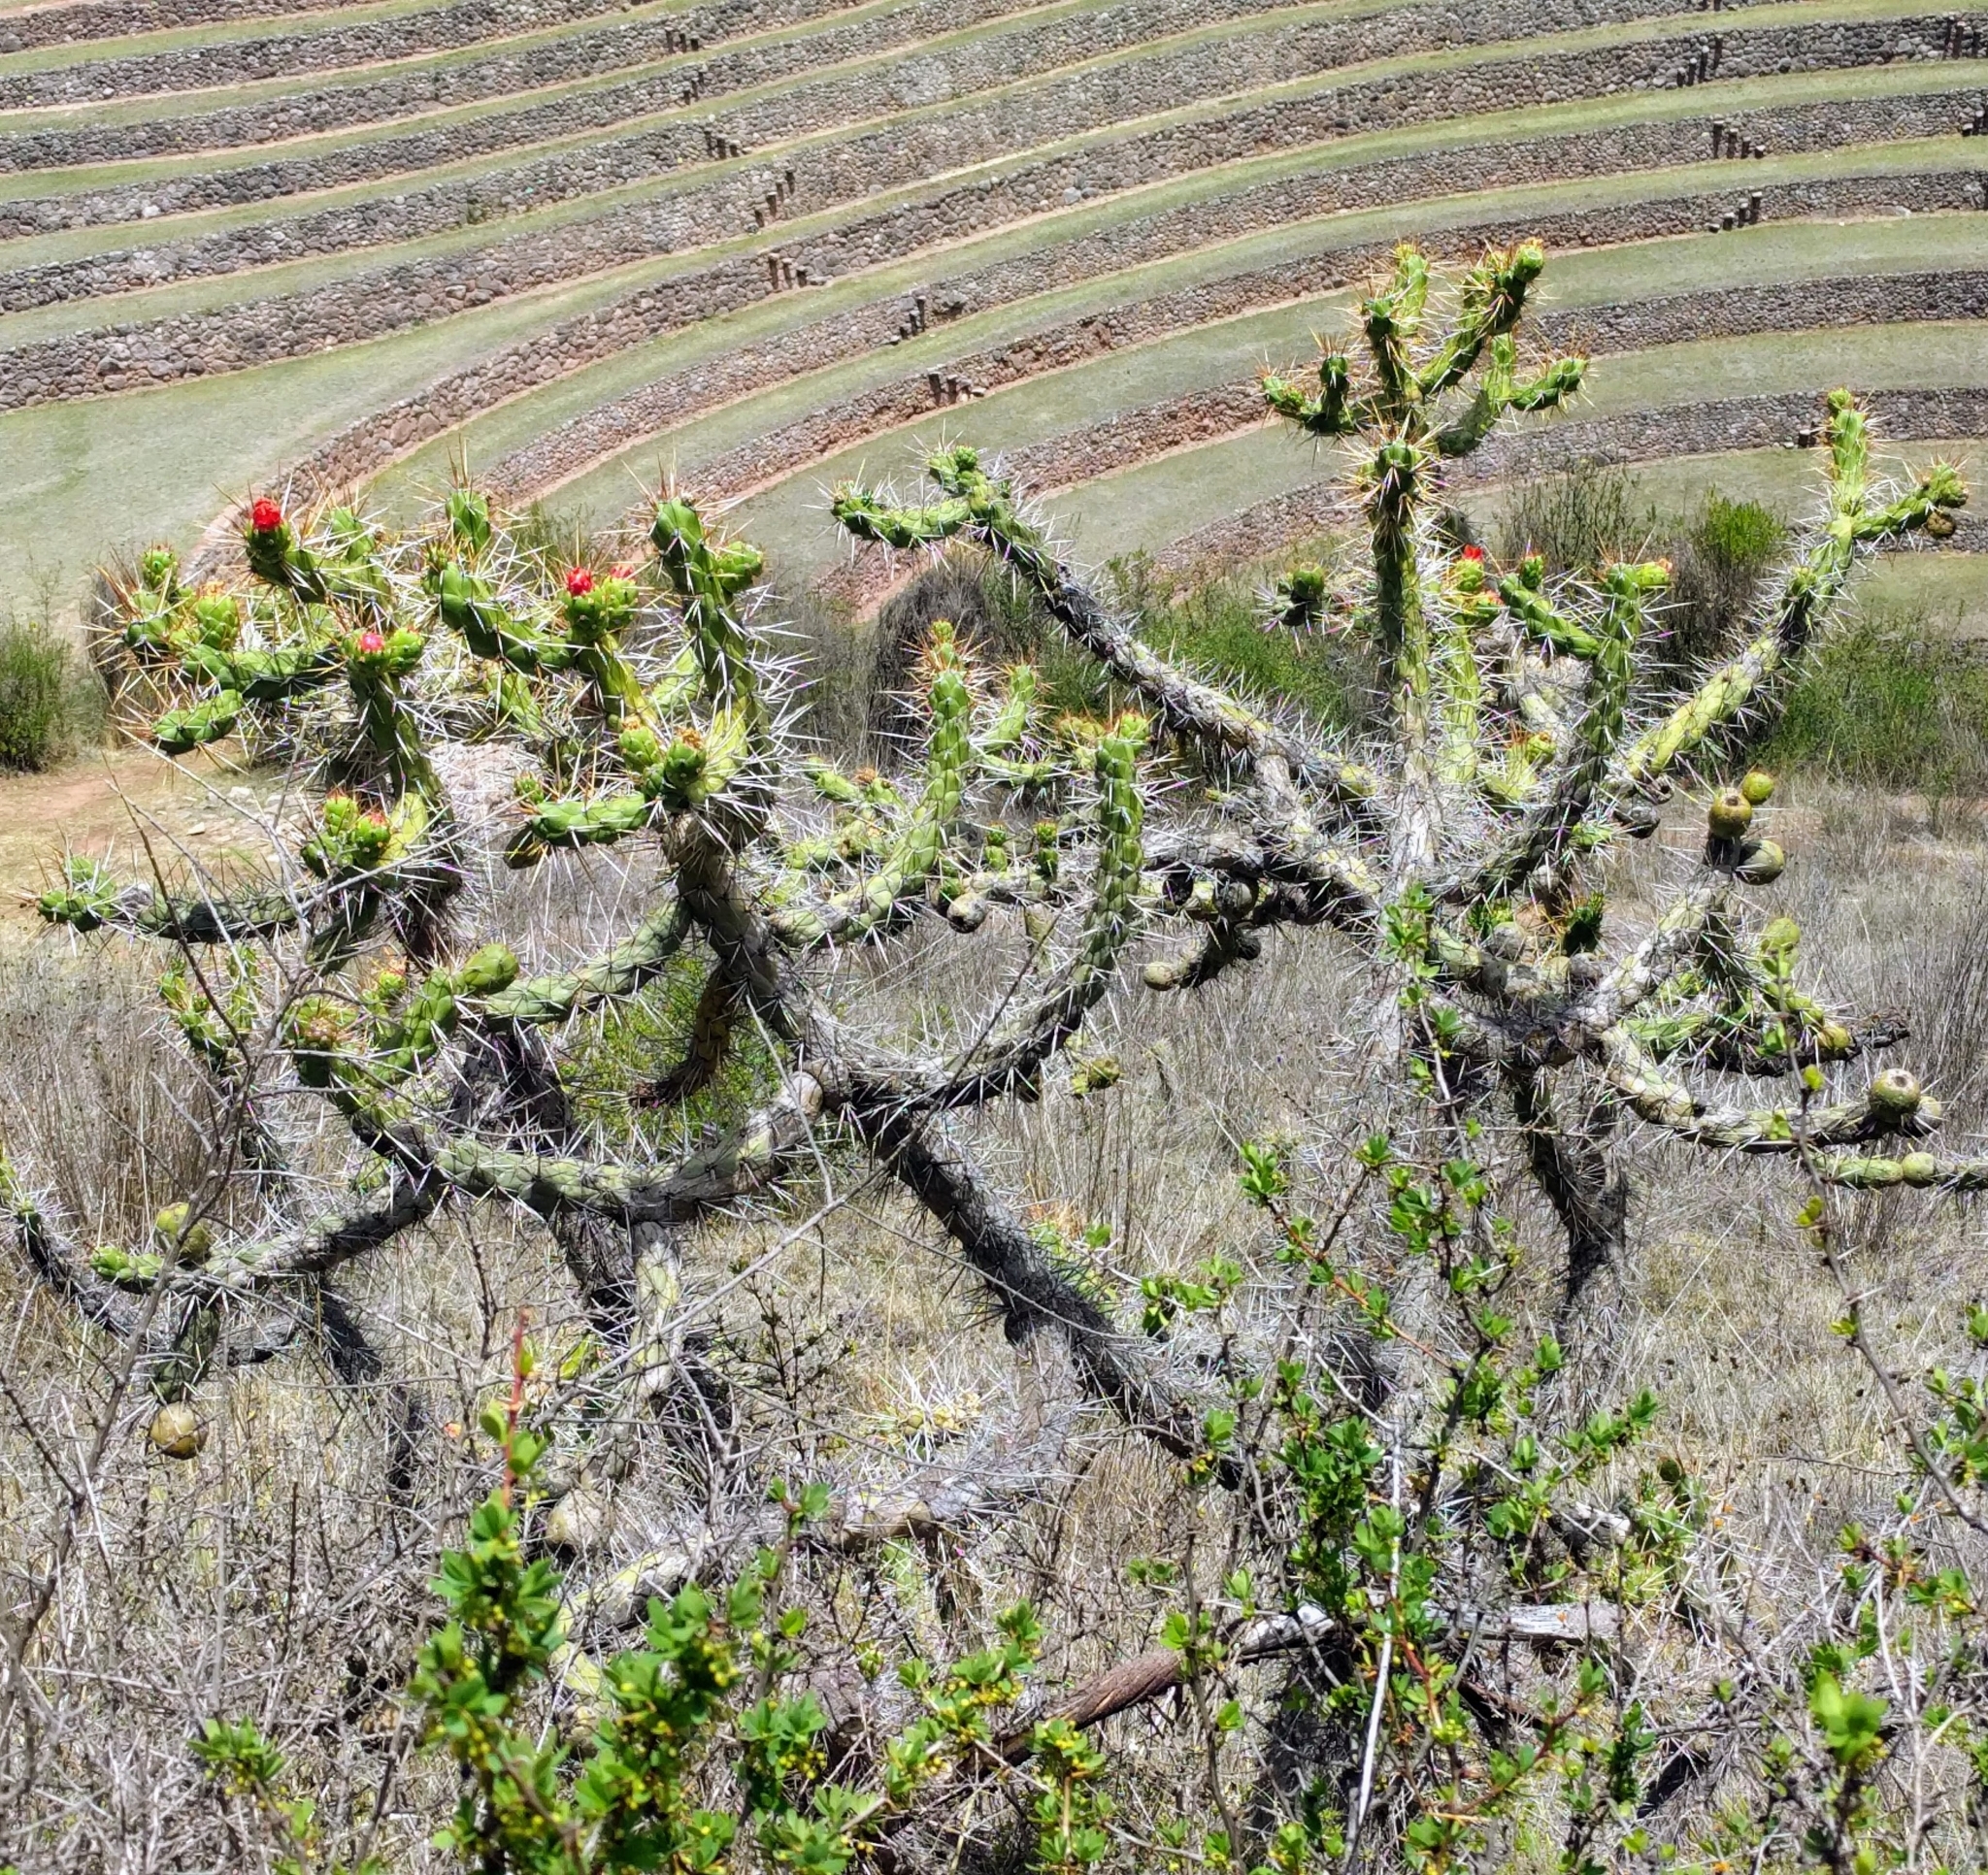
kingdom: Plantae
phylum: Tracheophyta
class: Magnoliopsida
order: Caryophyllales
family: Cactaceae
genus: Austrocylindropuntia
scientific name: Austrocylindropuntia subulata
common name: Eve's needle cactus
